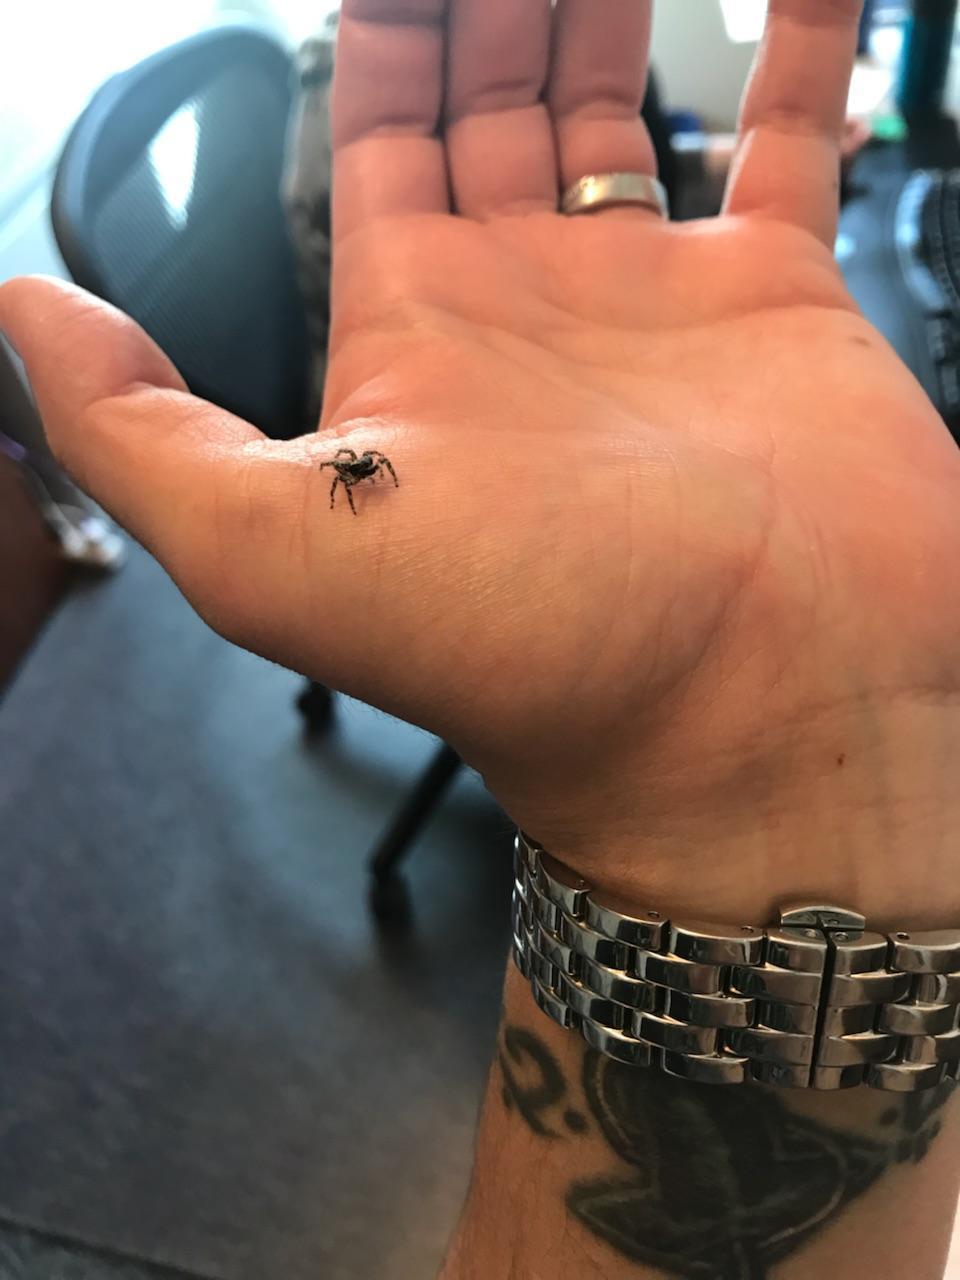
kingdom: Animalia
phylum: Arthropoda
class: Arachnida
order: Araneae
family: Salticidae
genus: Platycryptus
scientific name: Platycryptus californicus
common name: Jumping spiders
